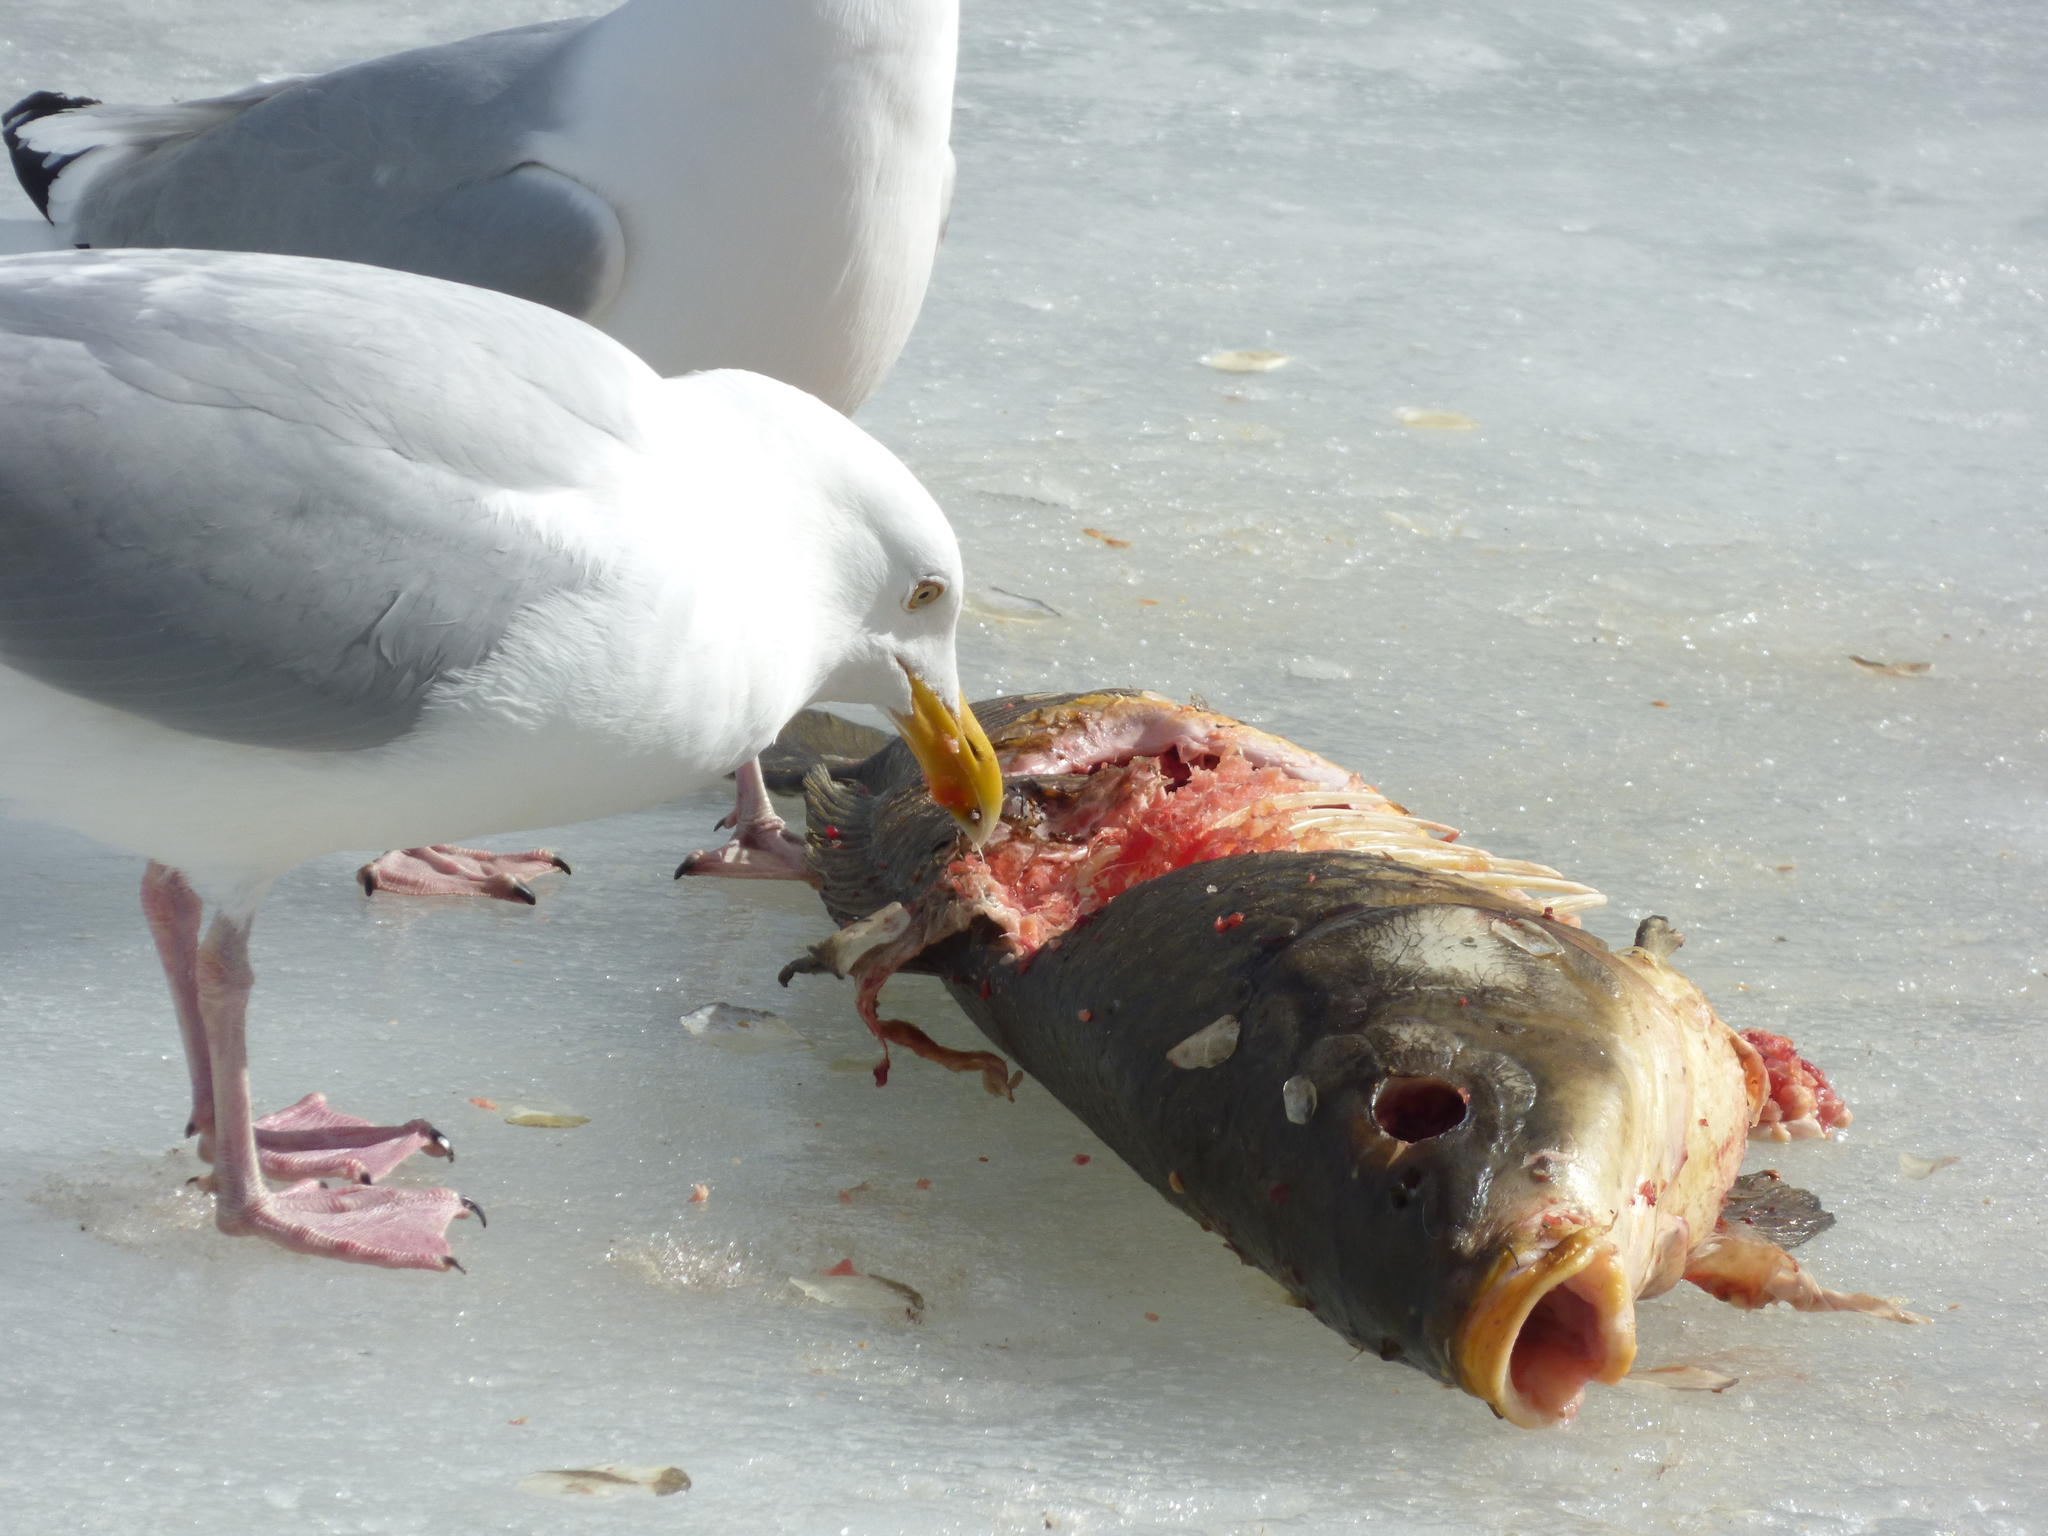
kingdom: Animalia
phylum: Chordata
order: Cypriniformes
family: Cyprinidae
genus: Cyprinus
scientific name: Cyprinus carpio
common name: Common carp
